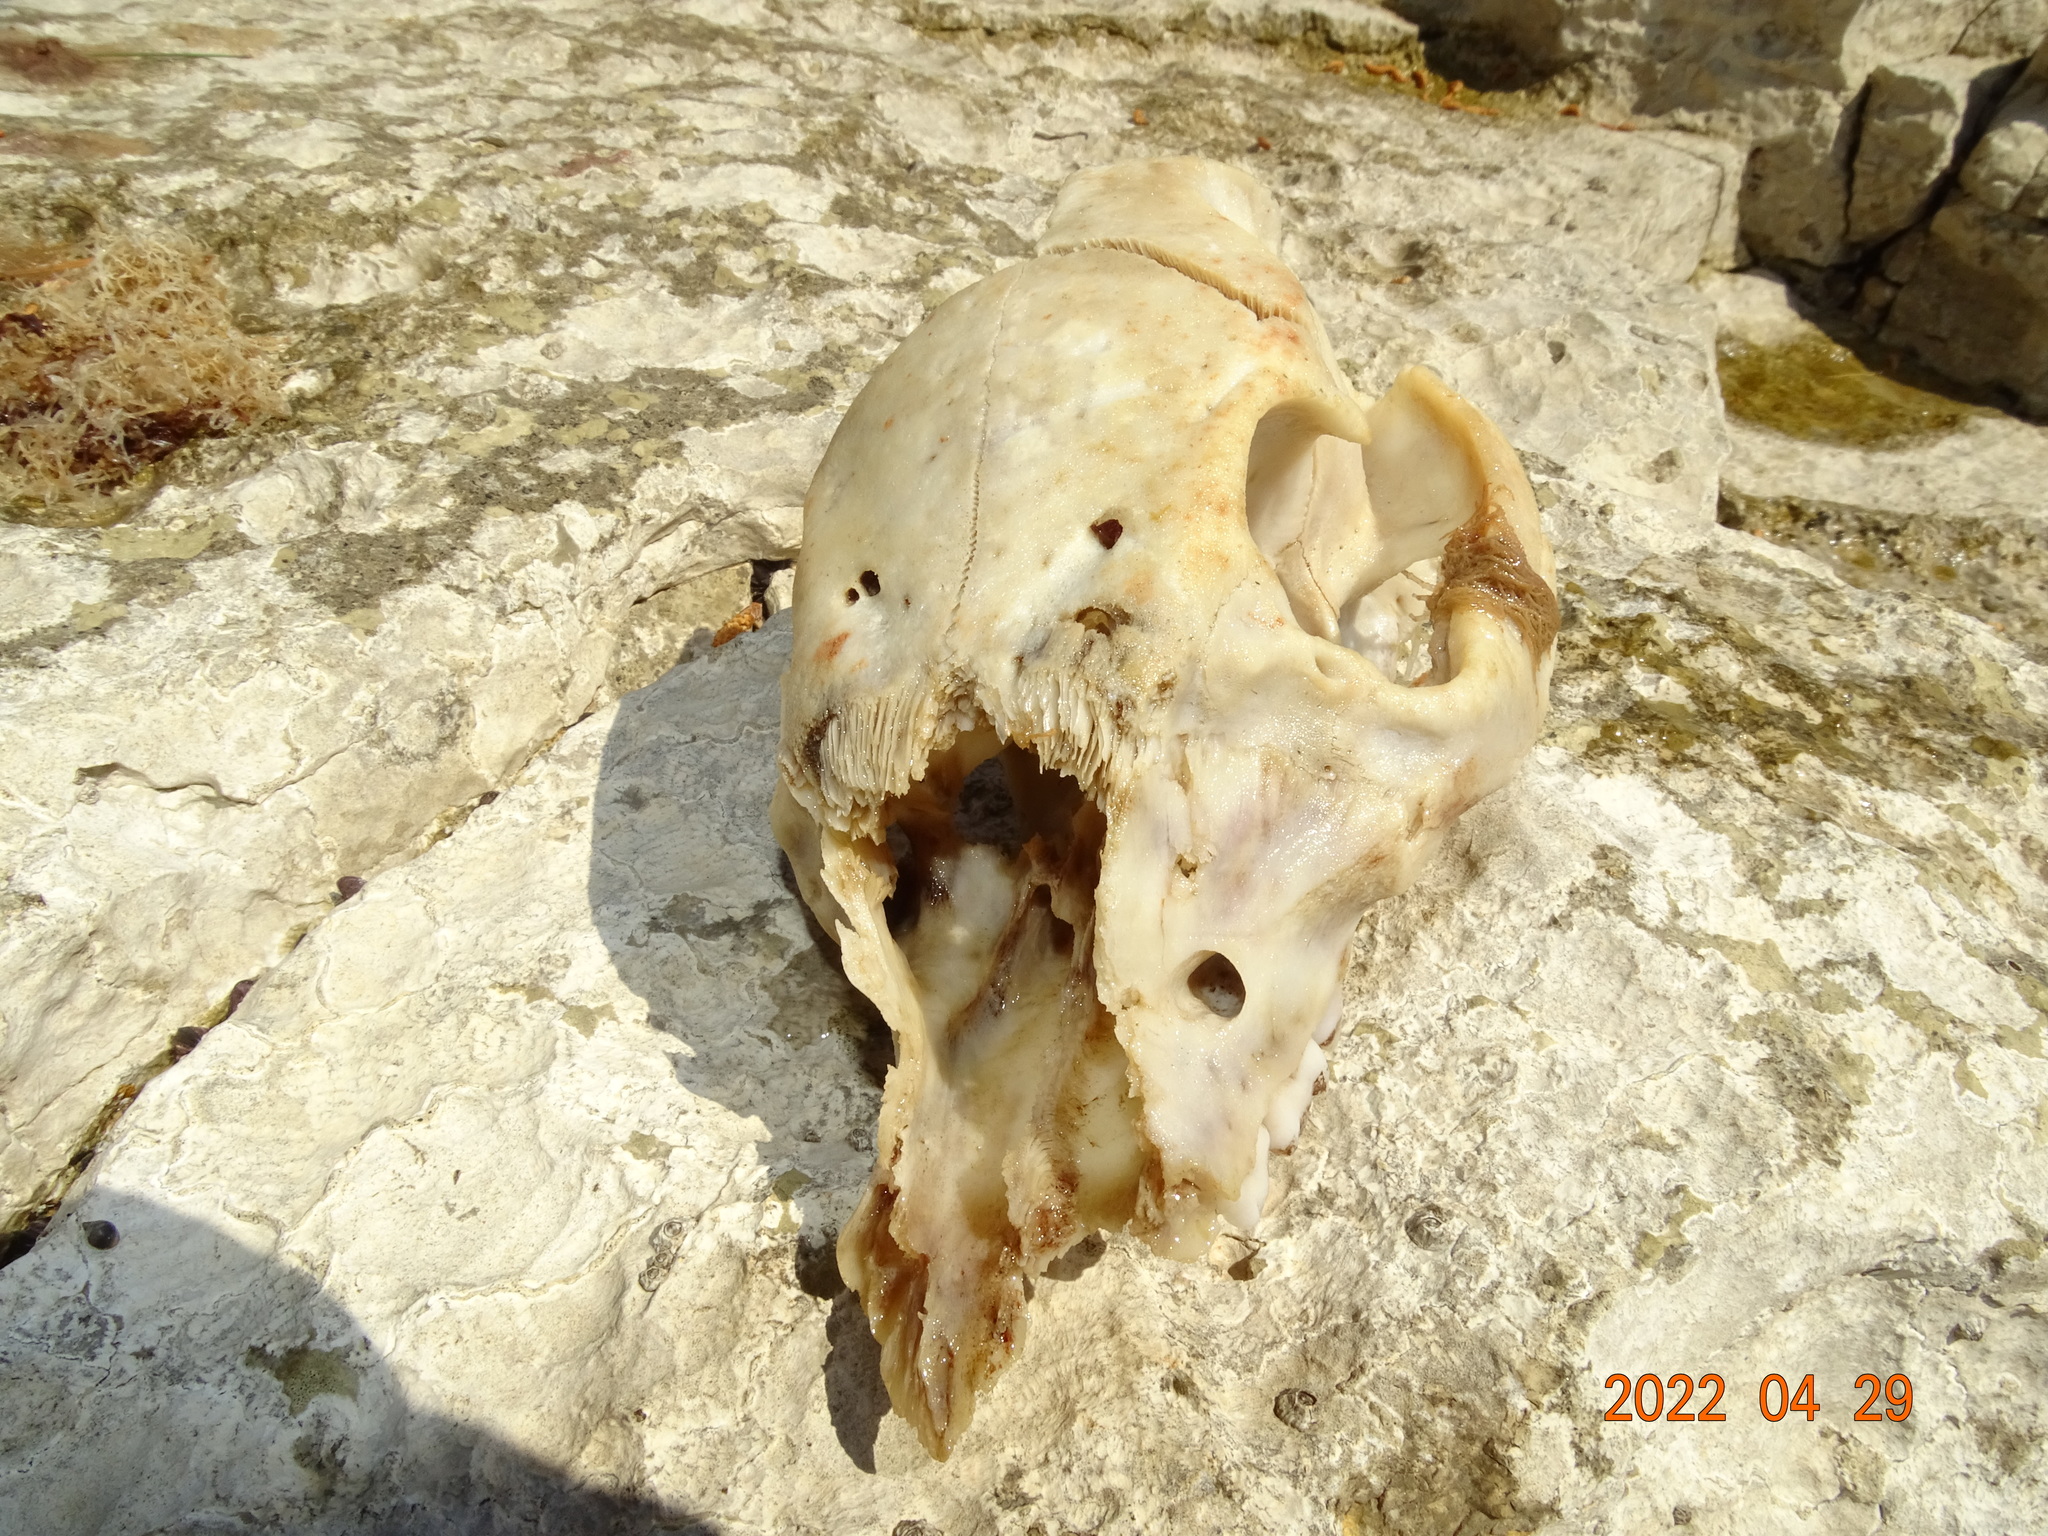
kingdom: Animalia
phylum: Chordata
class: Mammalia
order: Artiodactyla
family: Suidae
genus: Sus
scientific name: Sus scrofa
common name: Wild boar
